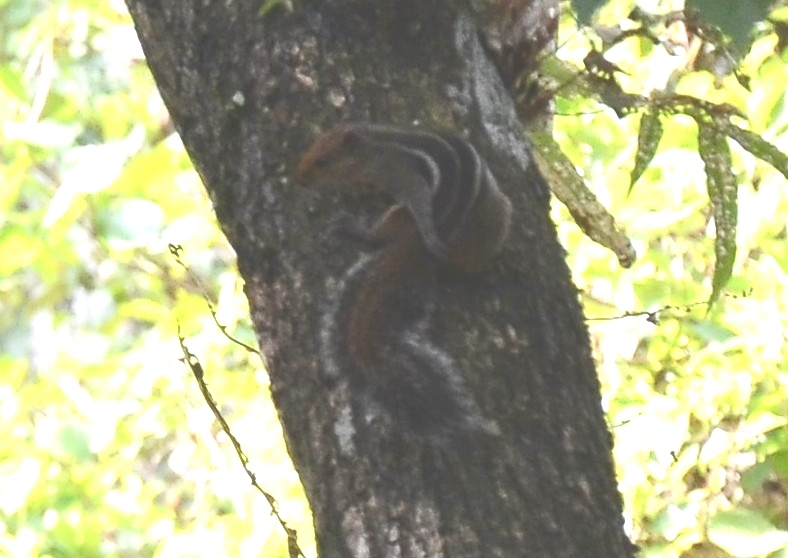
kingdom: Animalia
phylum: Chordata
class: Mammalia
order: Rodentia
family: Sciuridae
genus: Funambulus
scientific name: Funambulus tristriatus
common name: Jungle palm squirrel
